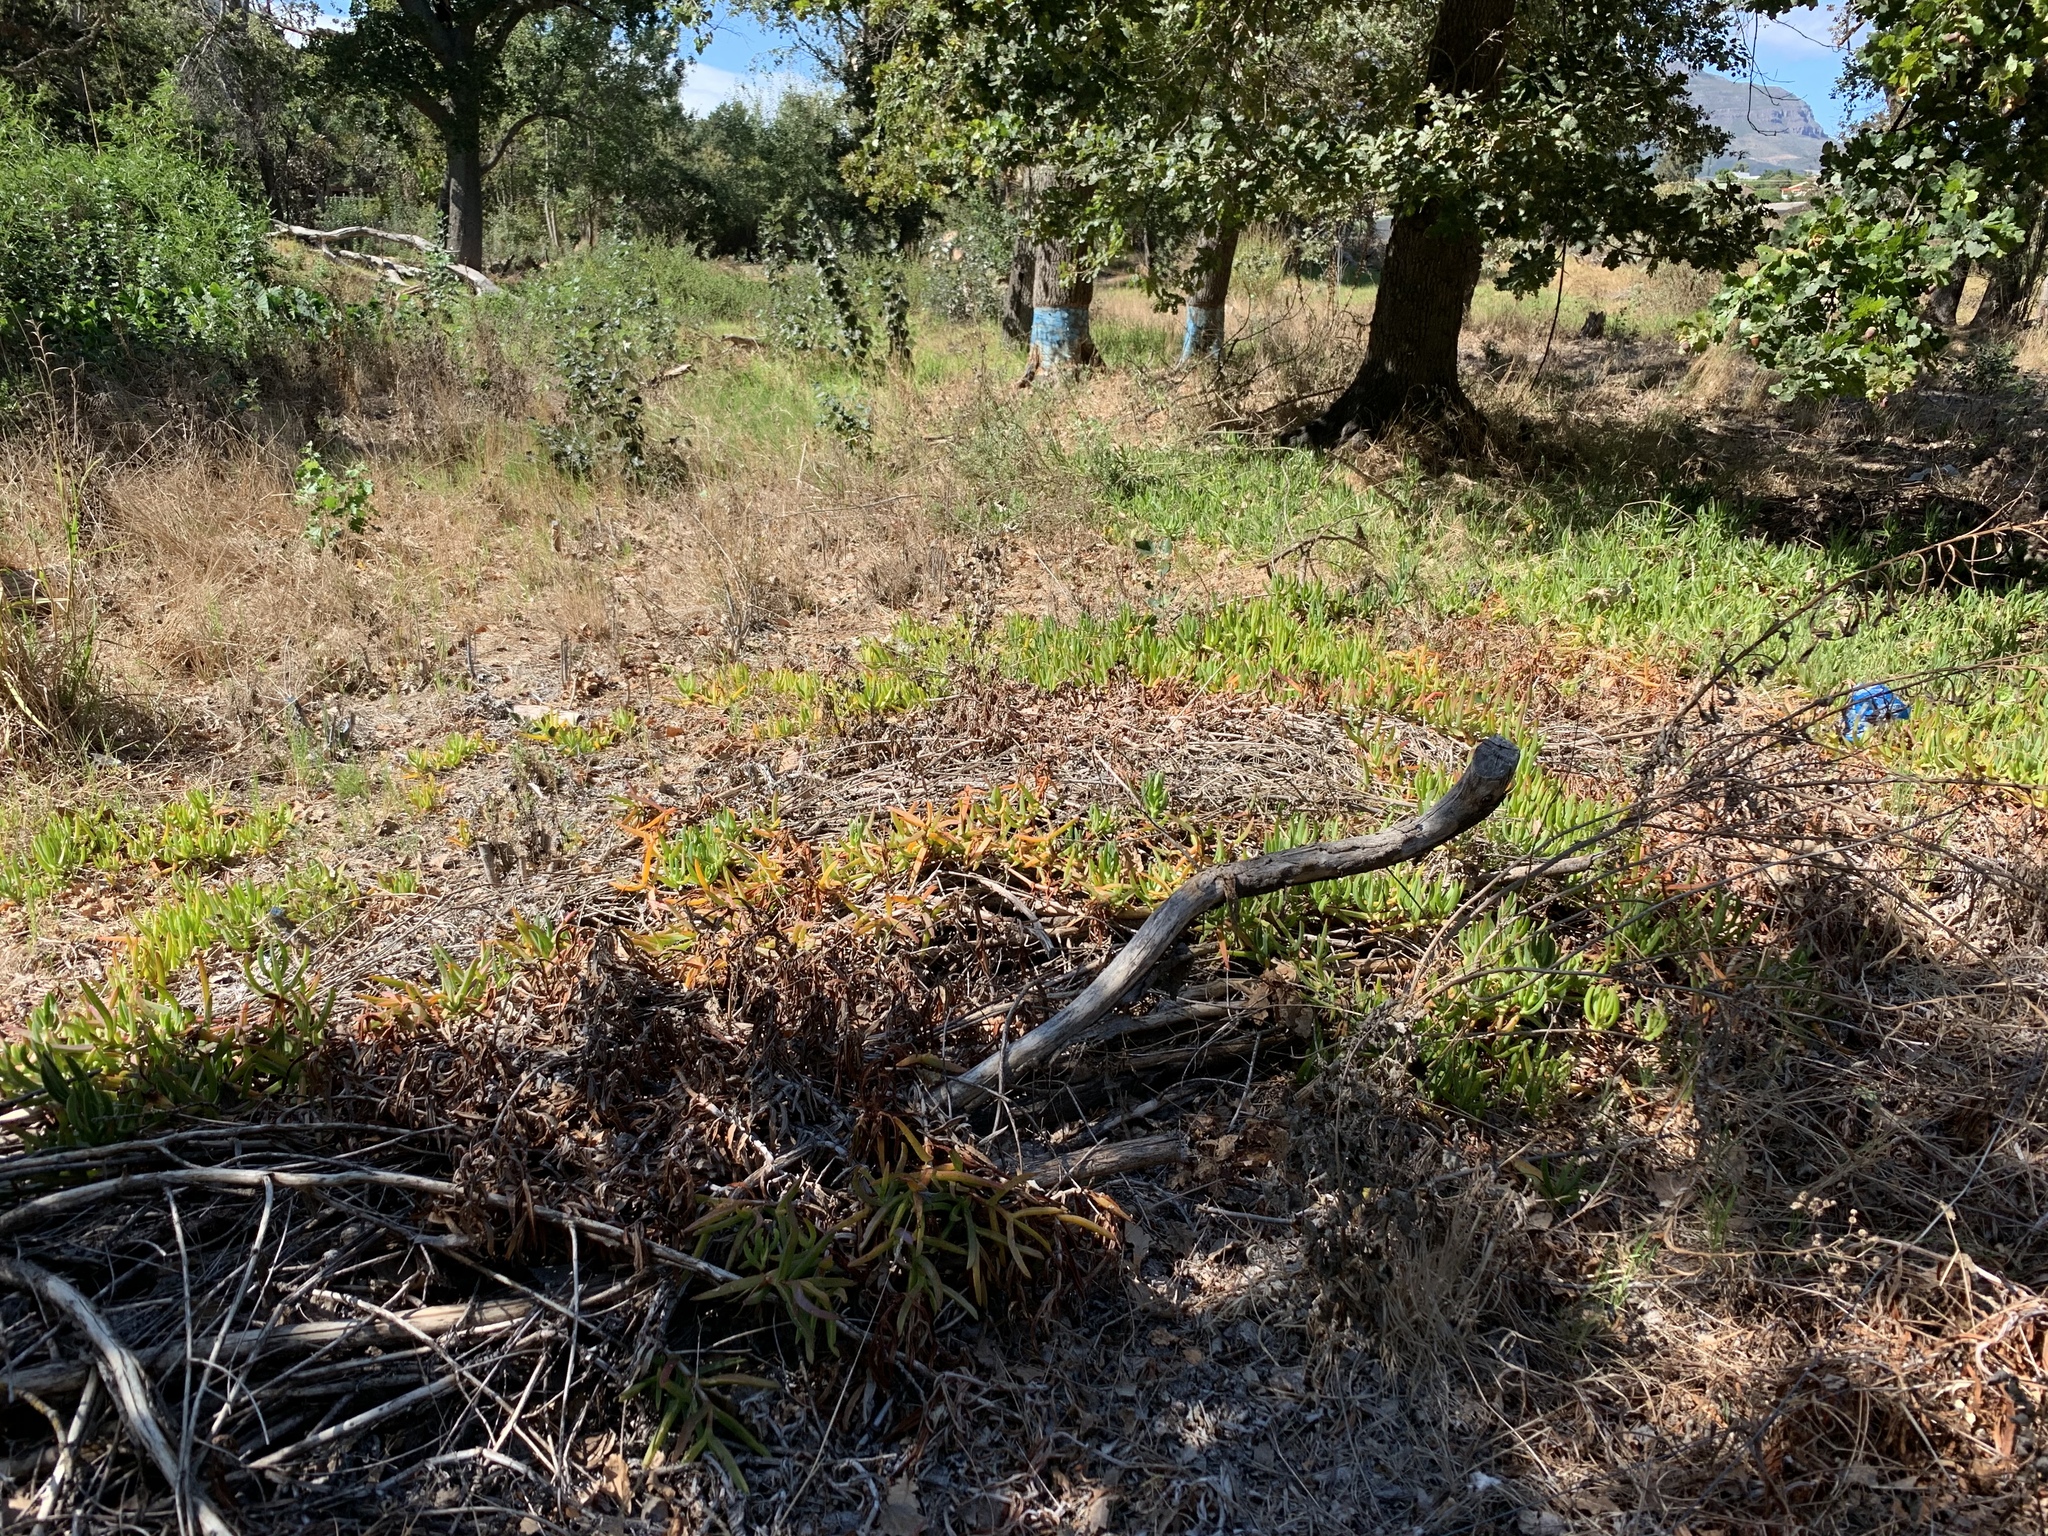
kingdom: Plantae
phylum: Tracheophyta
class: Magnoliopsida
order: Caryophyllales
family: Aizoaceae
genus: Carpobrotus
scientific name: Carpobrotus edulis
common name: Hottentot-fig
